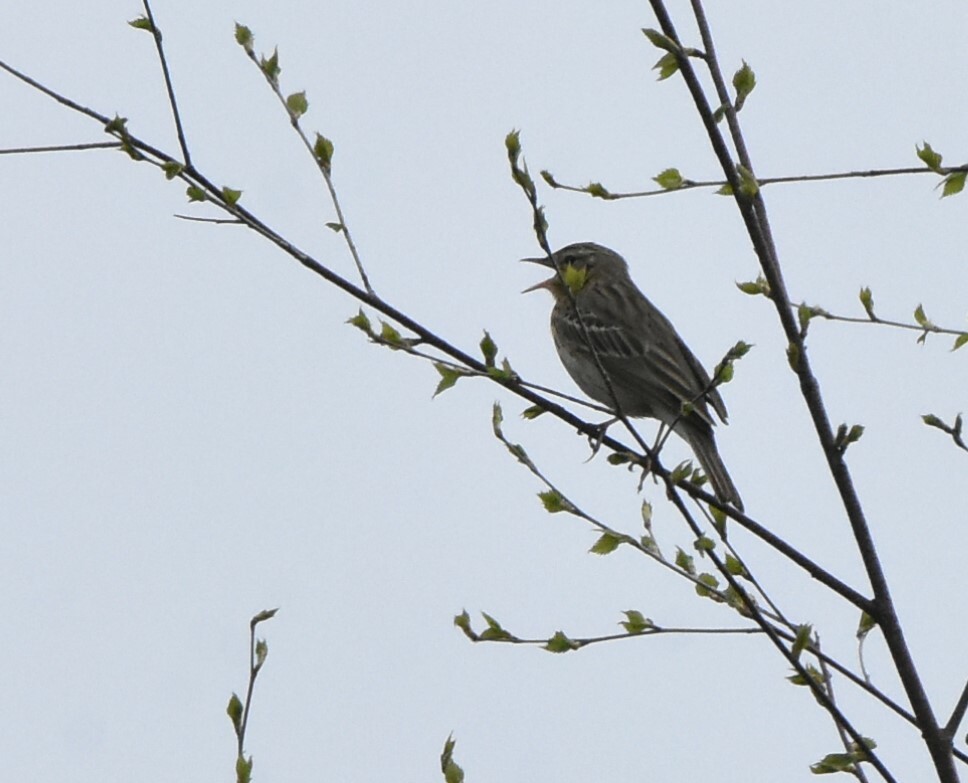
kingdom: Animalia
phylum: Chordata
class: Aves
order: Passeriformes
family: Motacillidae
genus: Anthus
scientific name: Anthus trivialis
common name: Tree pipit
